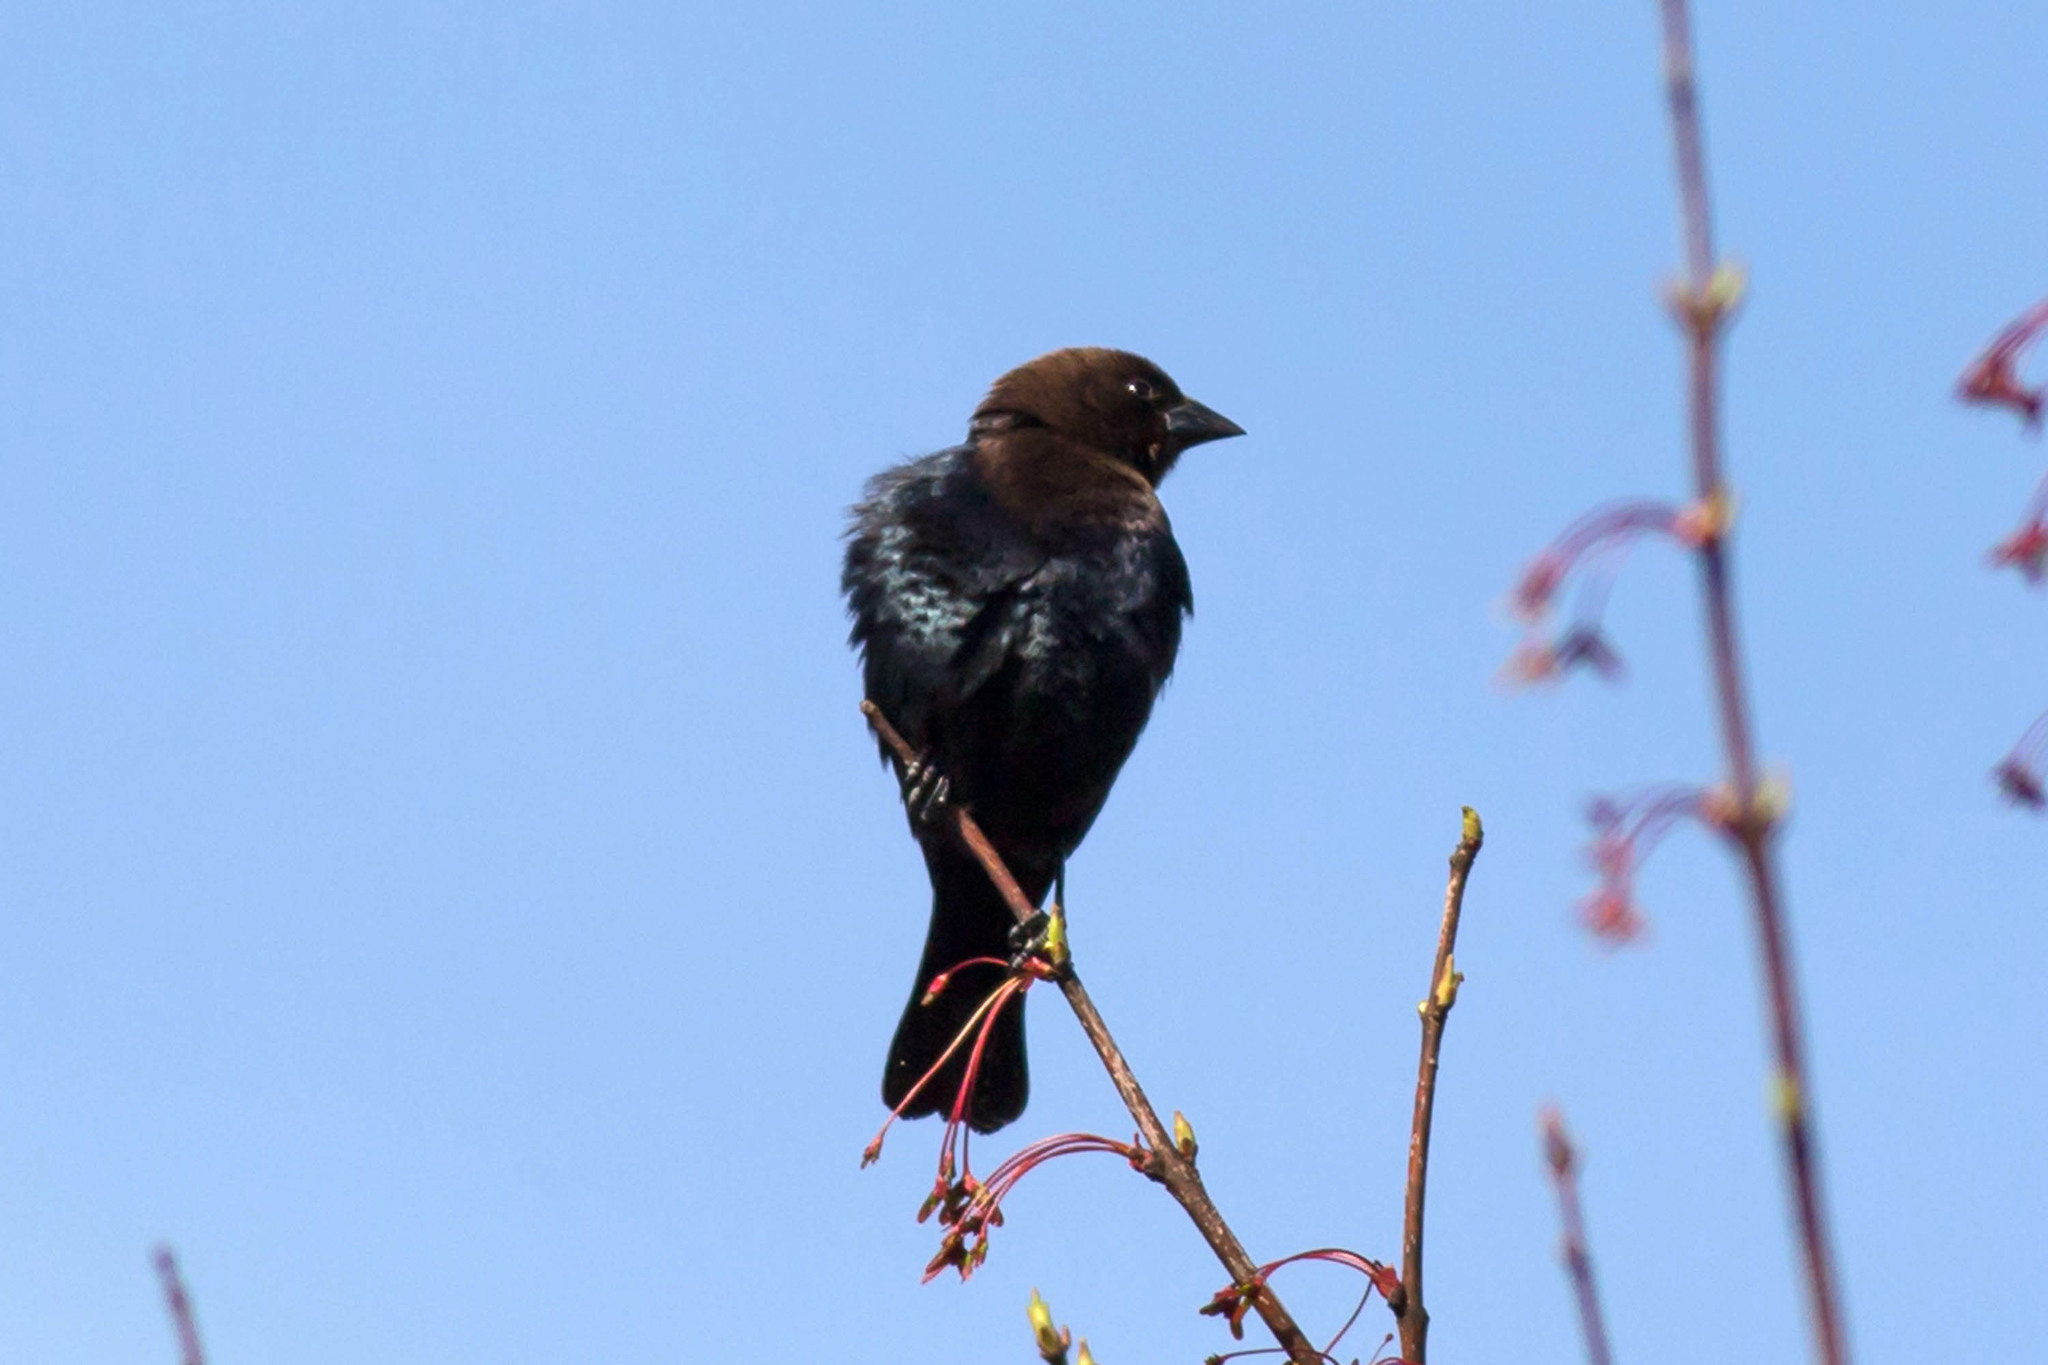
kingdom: Animalia
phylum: Chordata
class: Aves
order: Passeriformes
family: Icteridae
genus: Molothrus
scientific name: Molothrus ater
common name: Brown-headed cowbird
